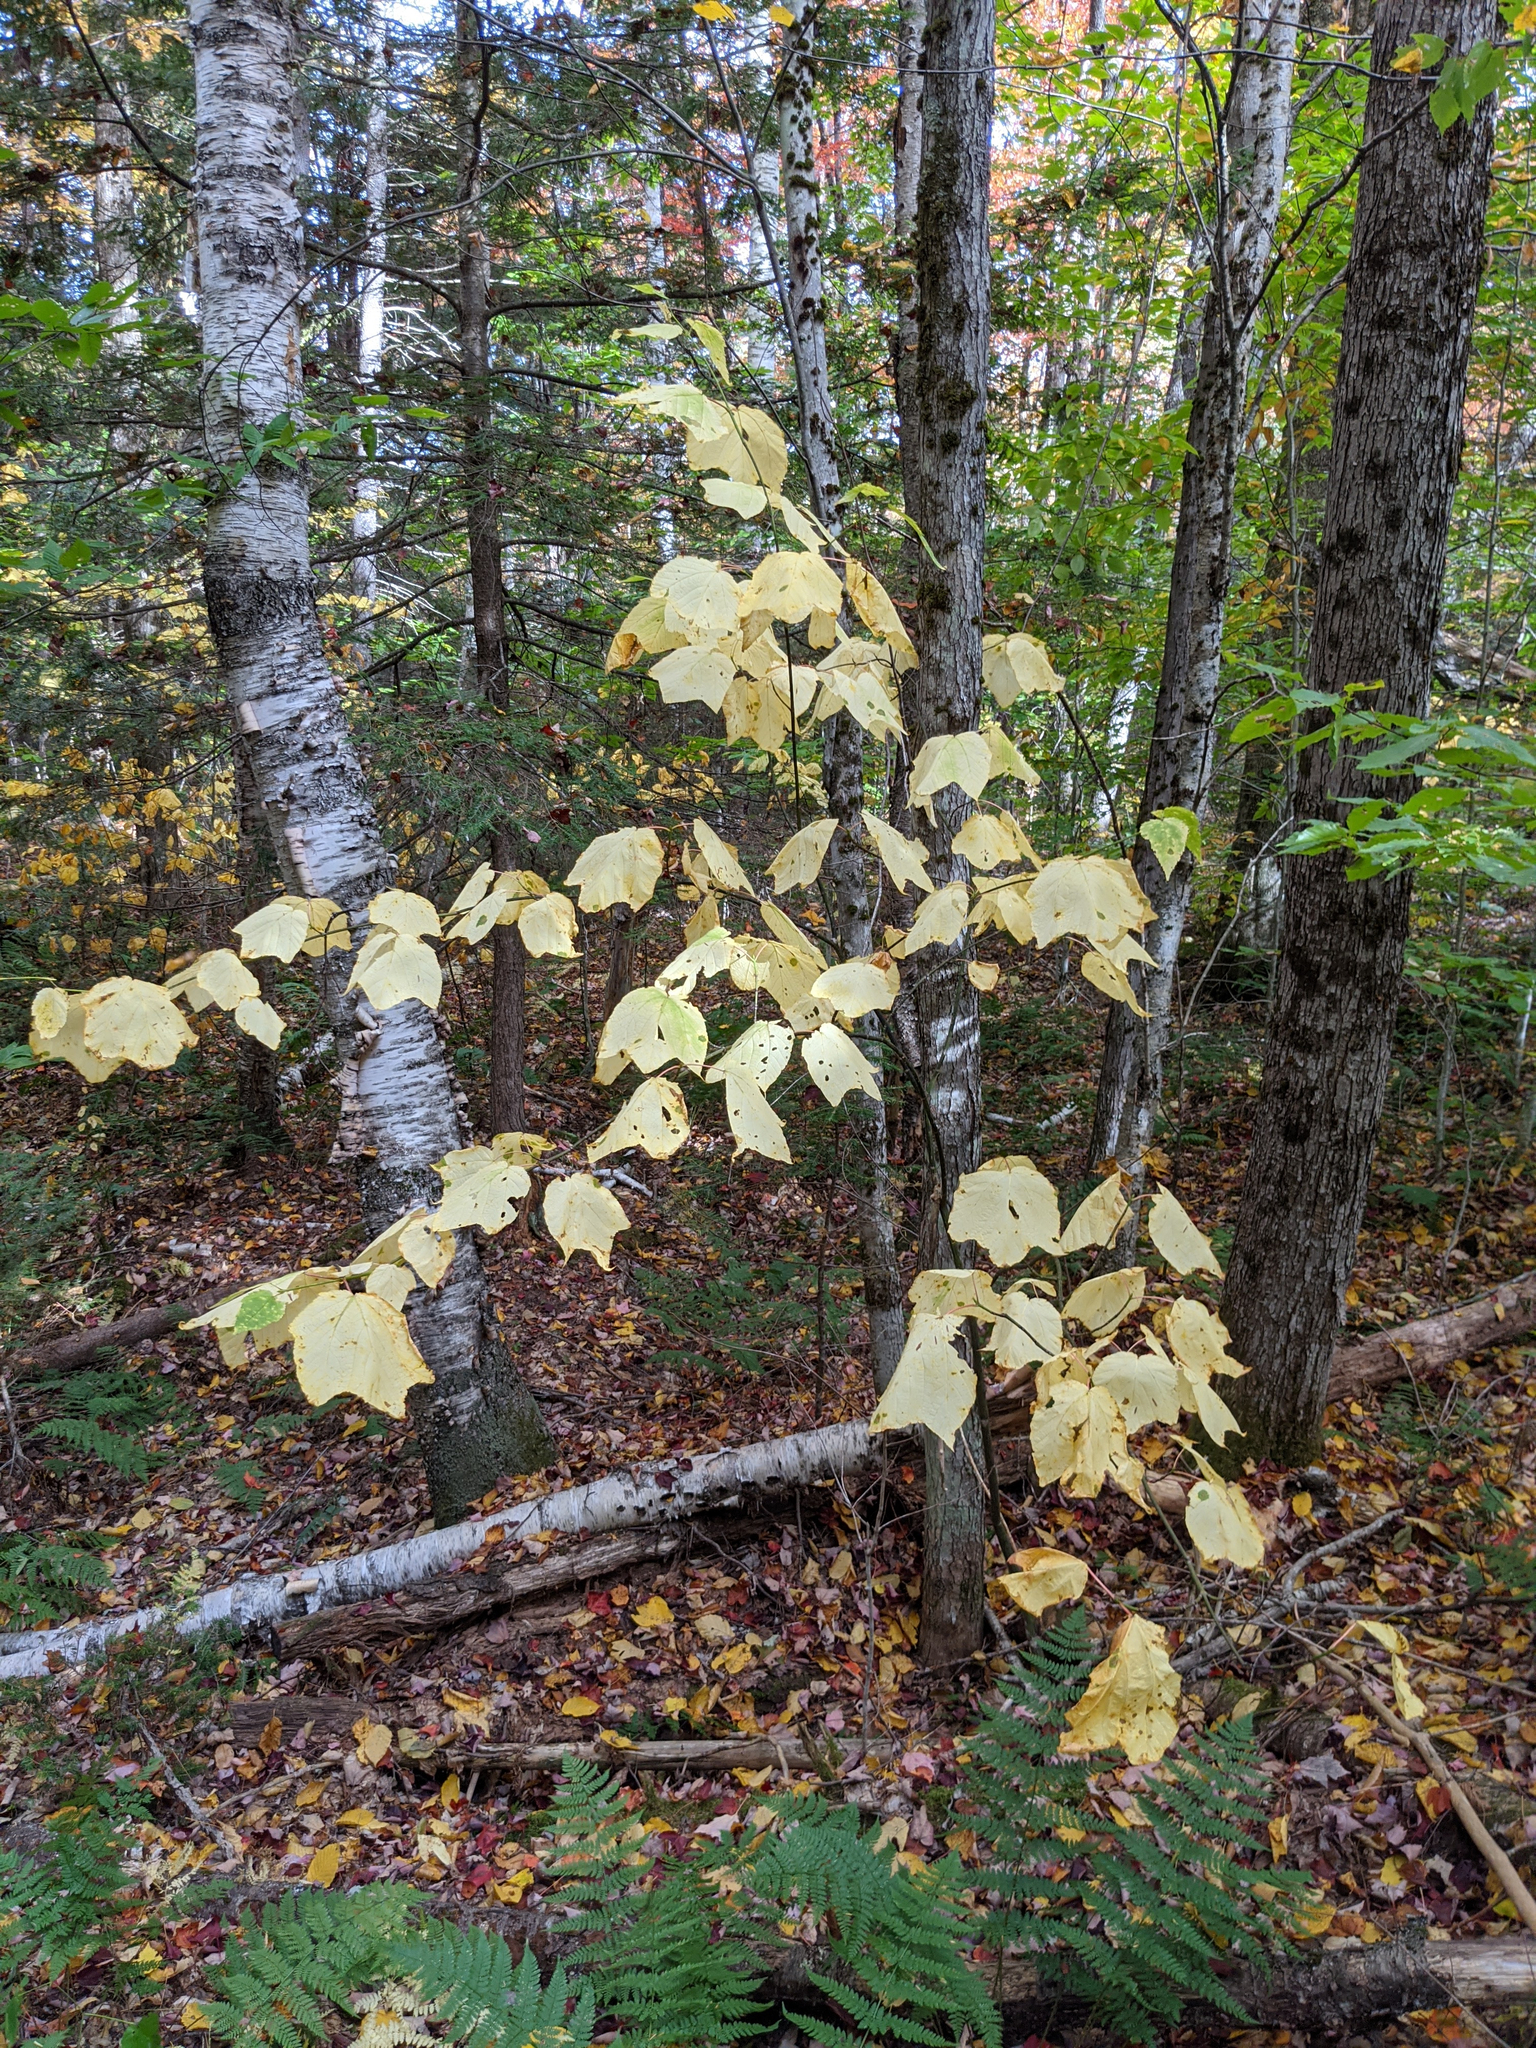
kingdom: Plantae
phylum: Tracheophyta
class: Magnoliopsida
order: Sapindales
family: Sapindaceae
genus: Acer
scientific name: Acer pensylvanicum
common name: Moosewood
